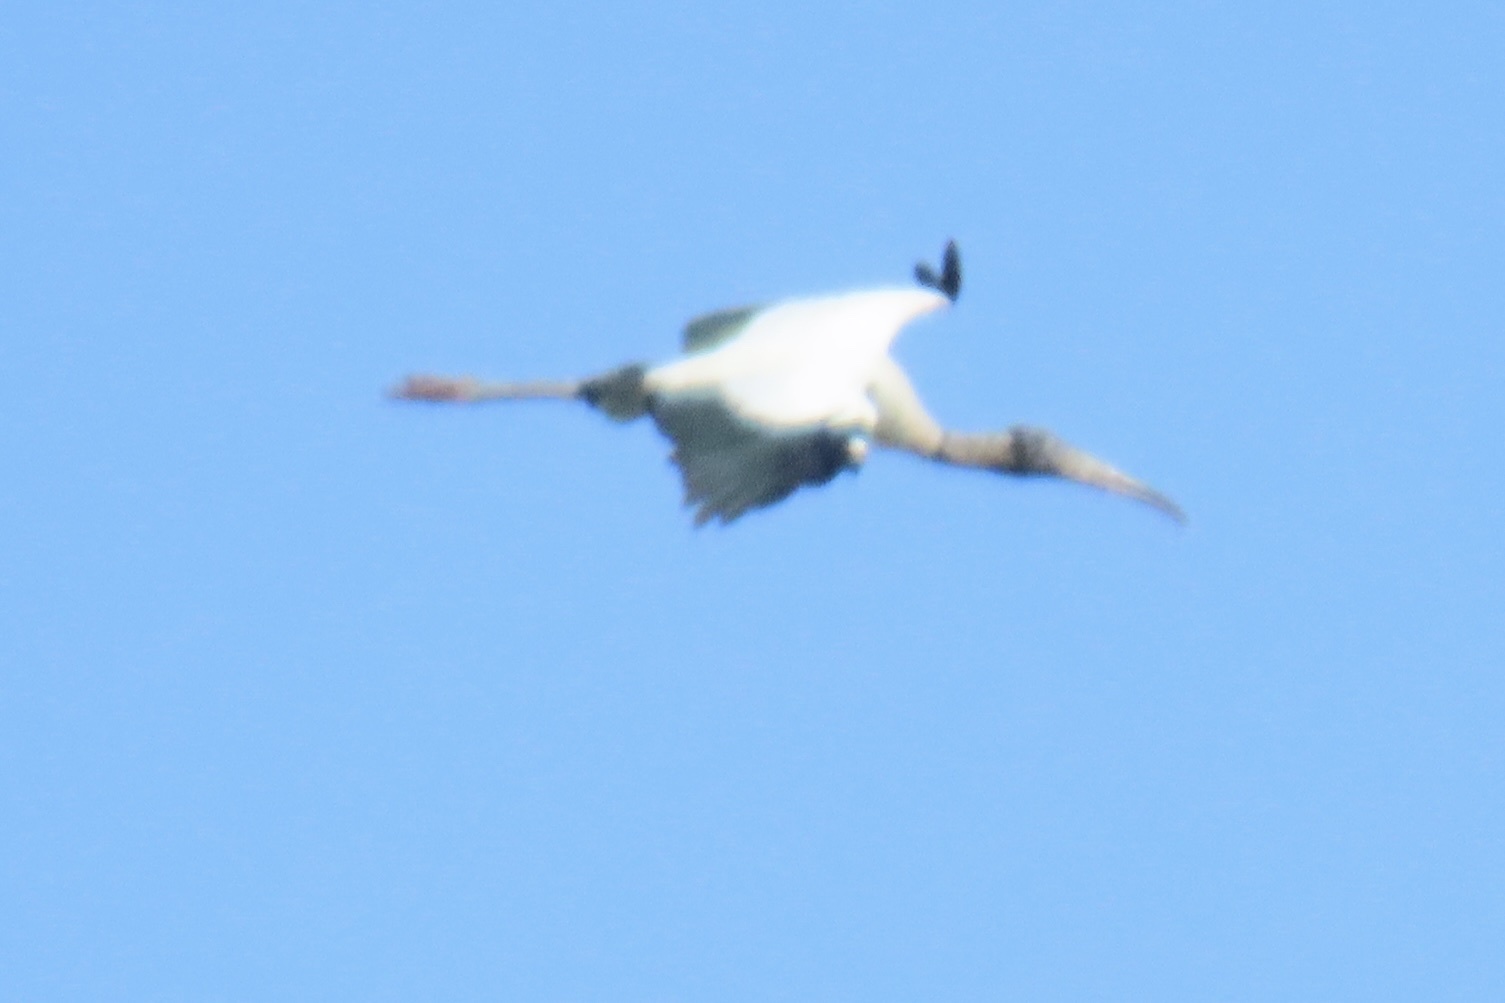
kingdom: Animalia
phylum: Chordata
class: Aves
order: Ciconiiformes
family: Ciconiidae
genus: Mycteria
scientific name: Mycteria americana
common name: Wood stork
